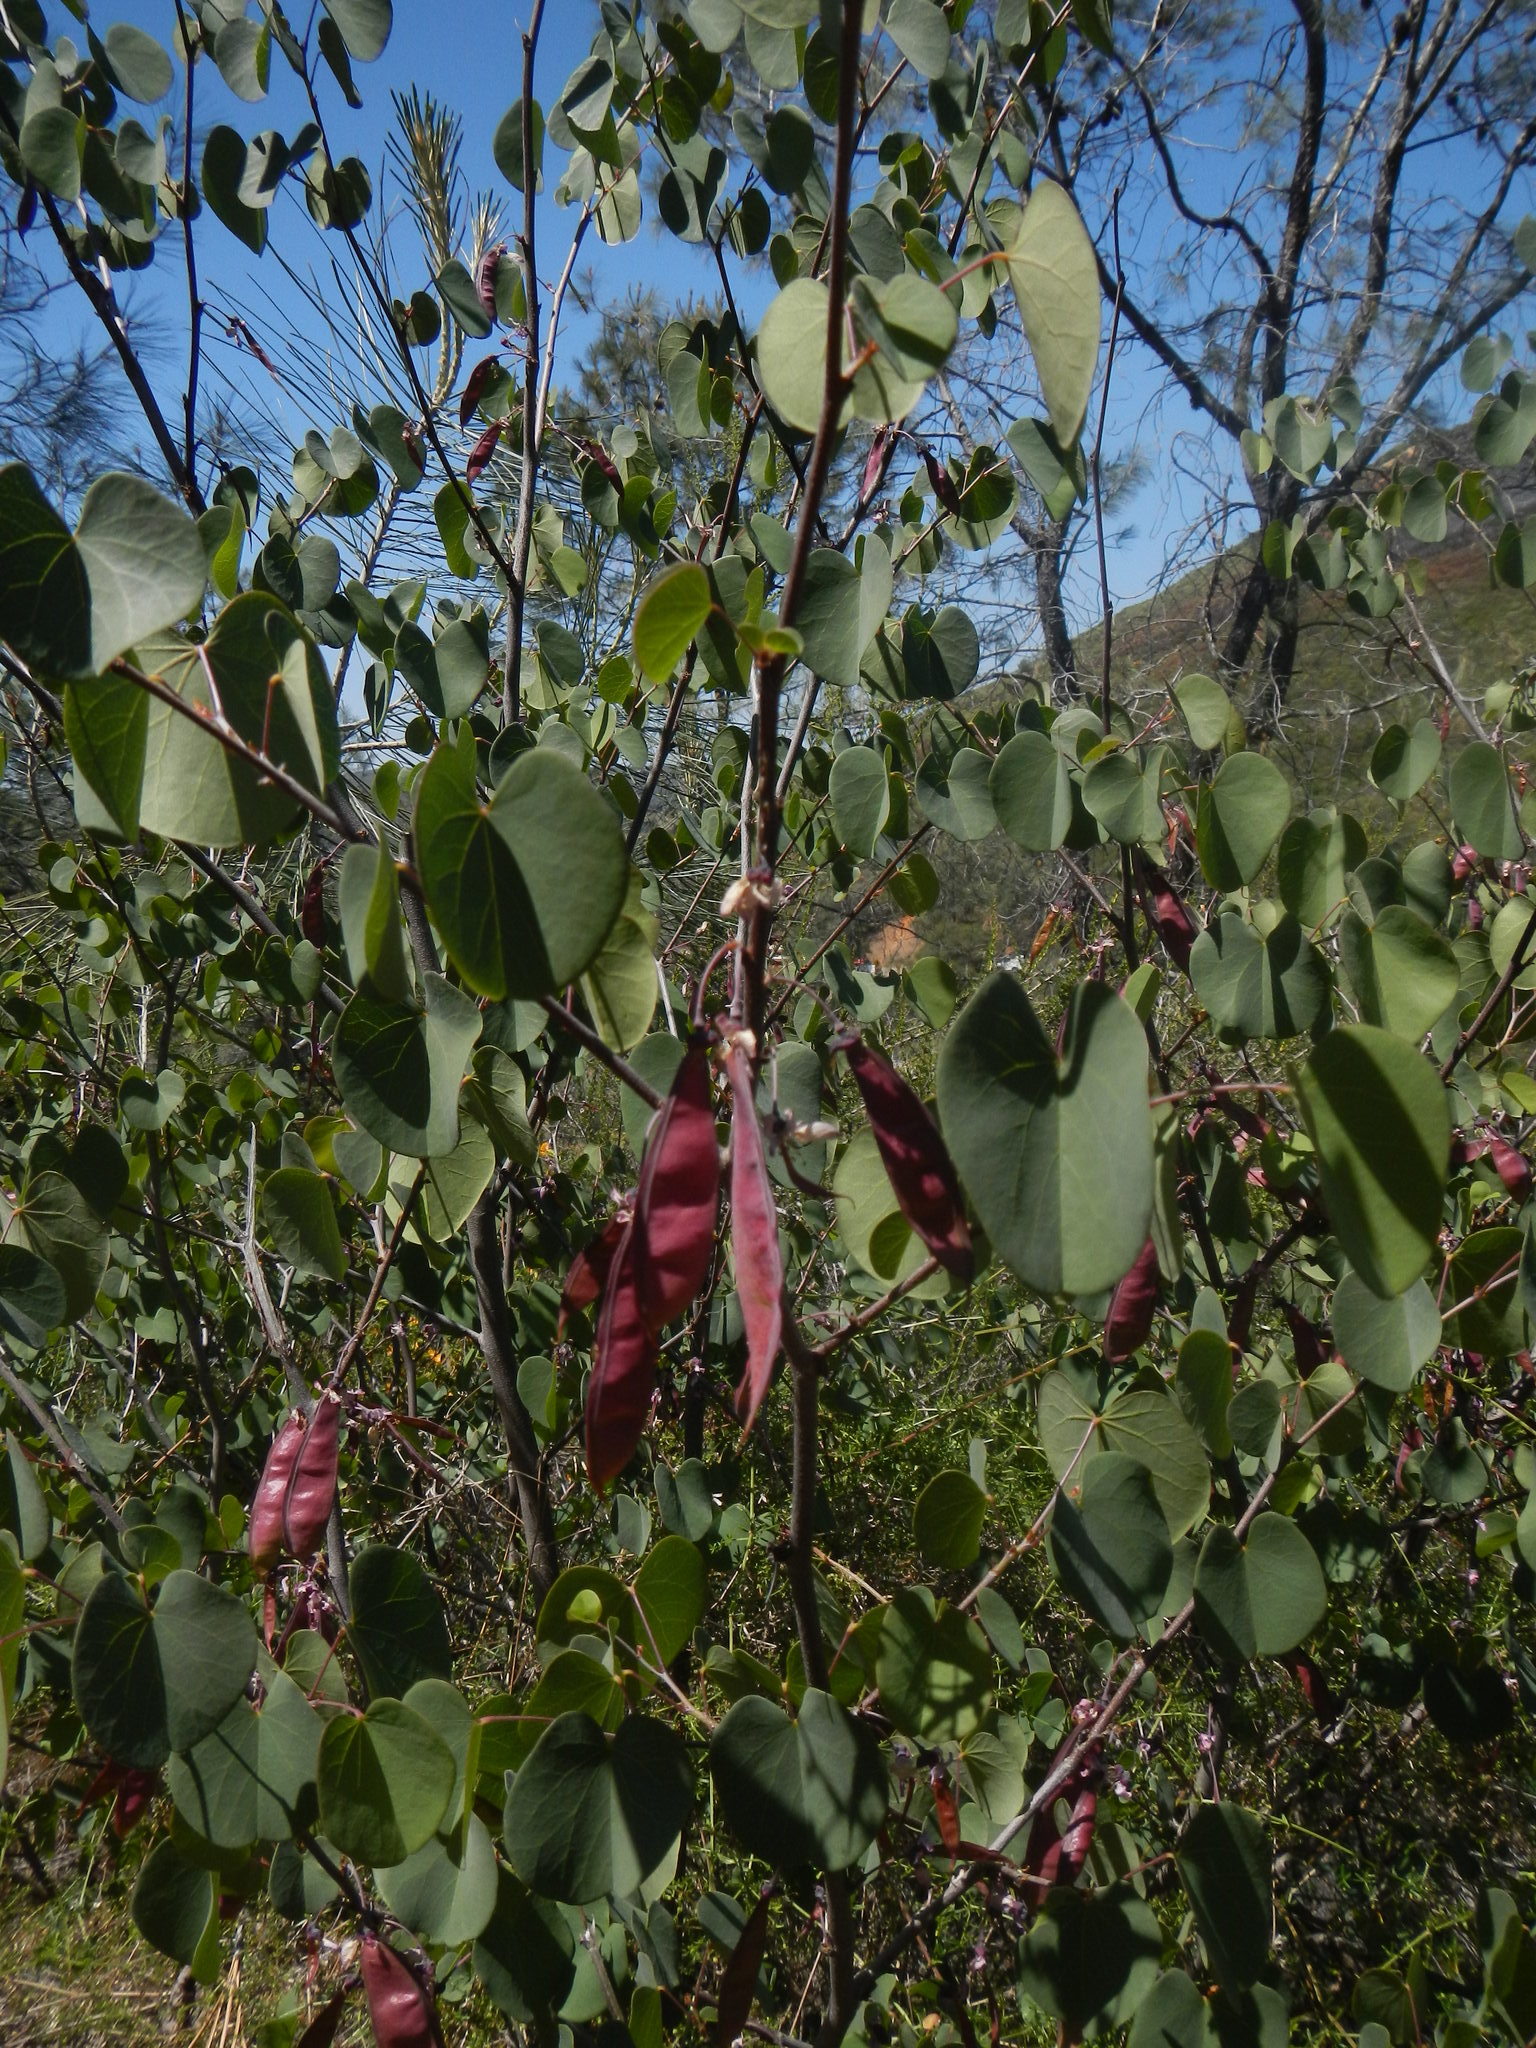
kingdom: Plantae
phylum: Tracheophyta
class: Magnoliopsida
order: Fabales
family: Fabaceae
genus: Cercis
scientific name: Cercis occidentalis
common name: California redbud
